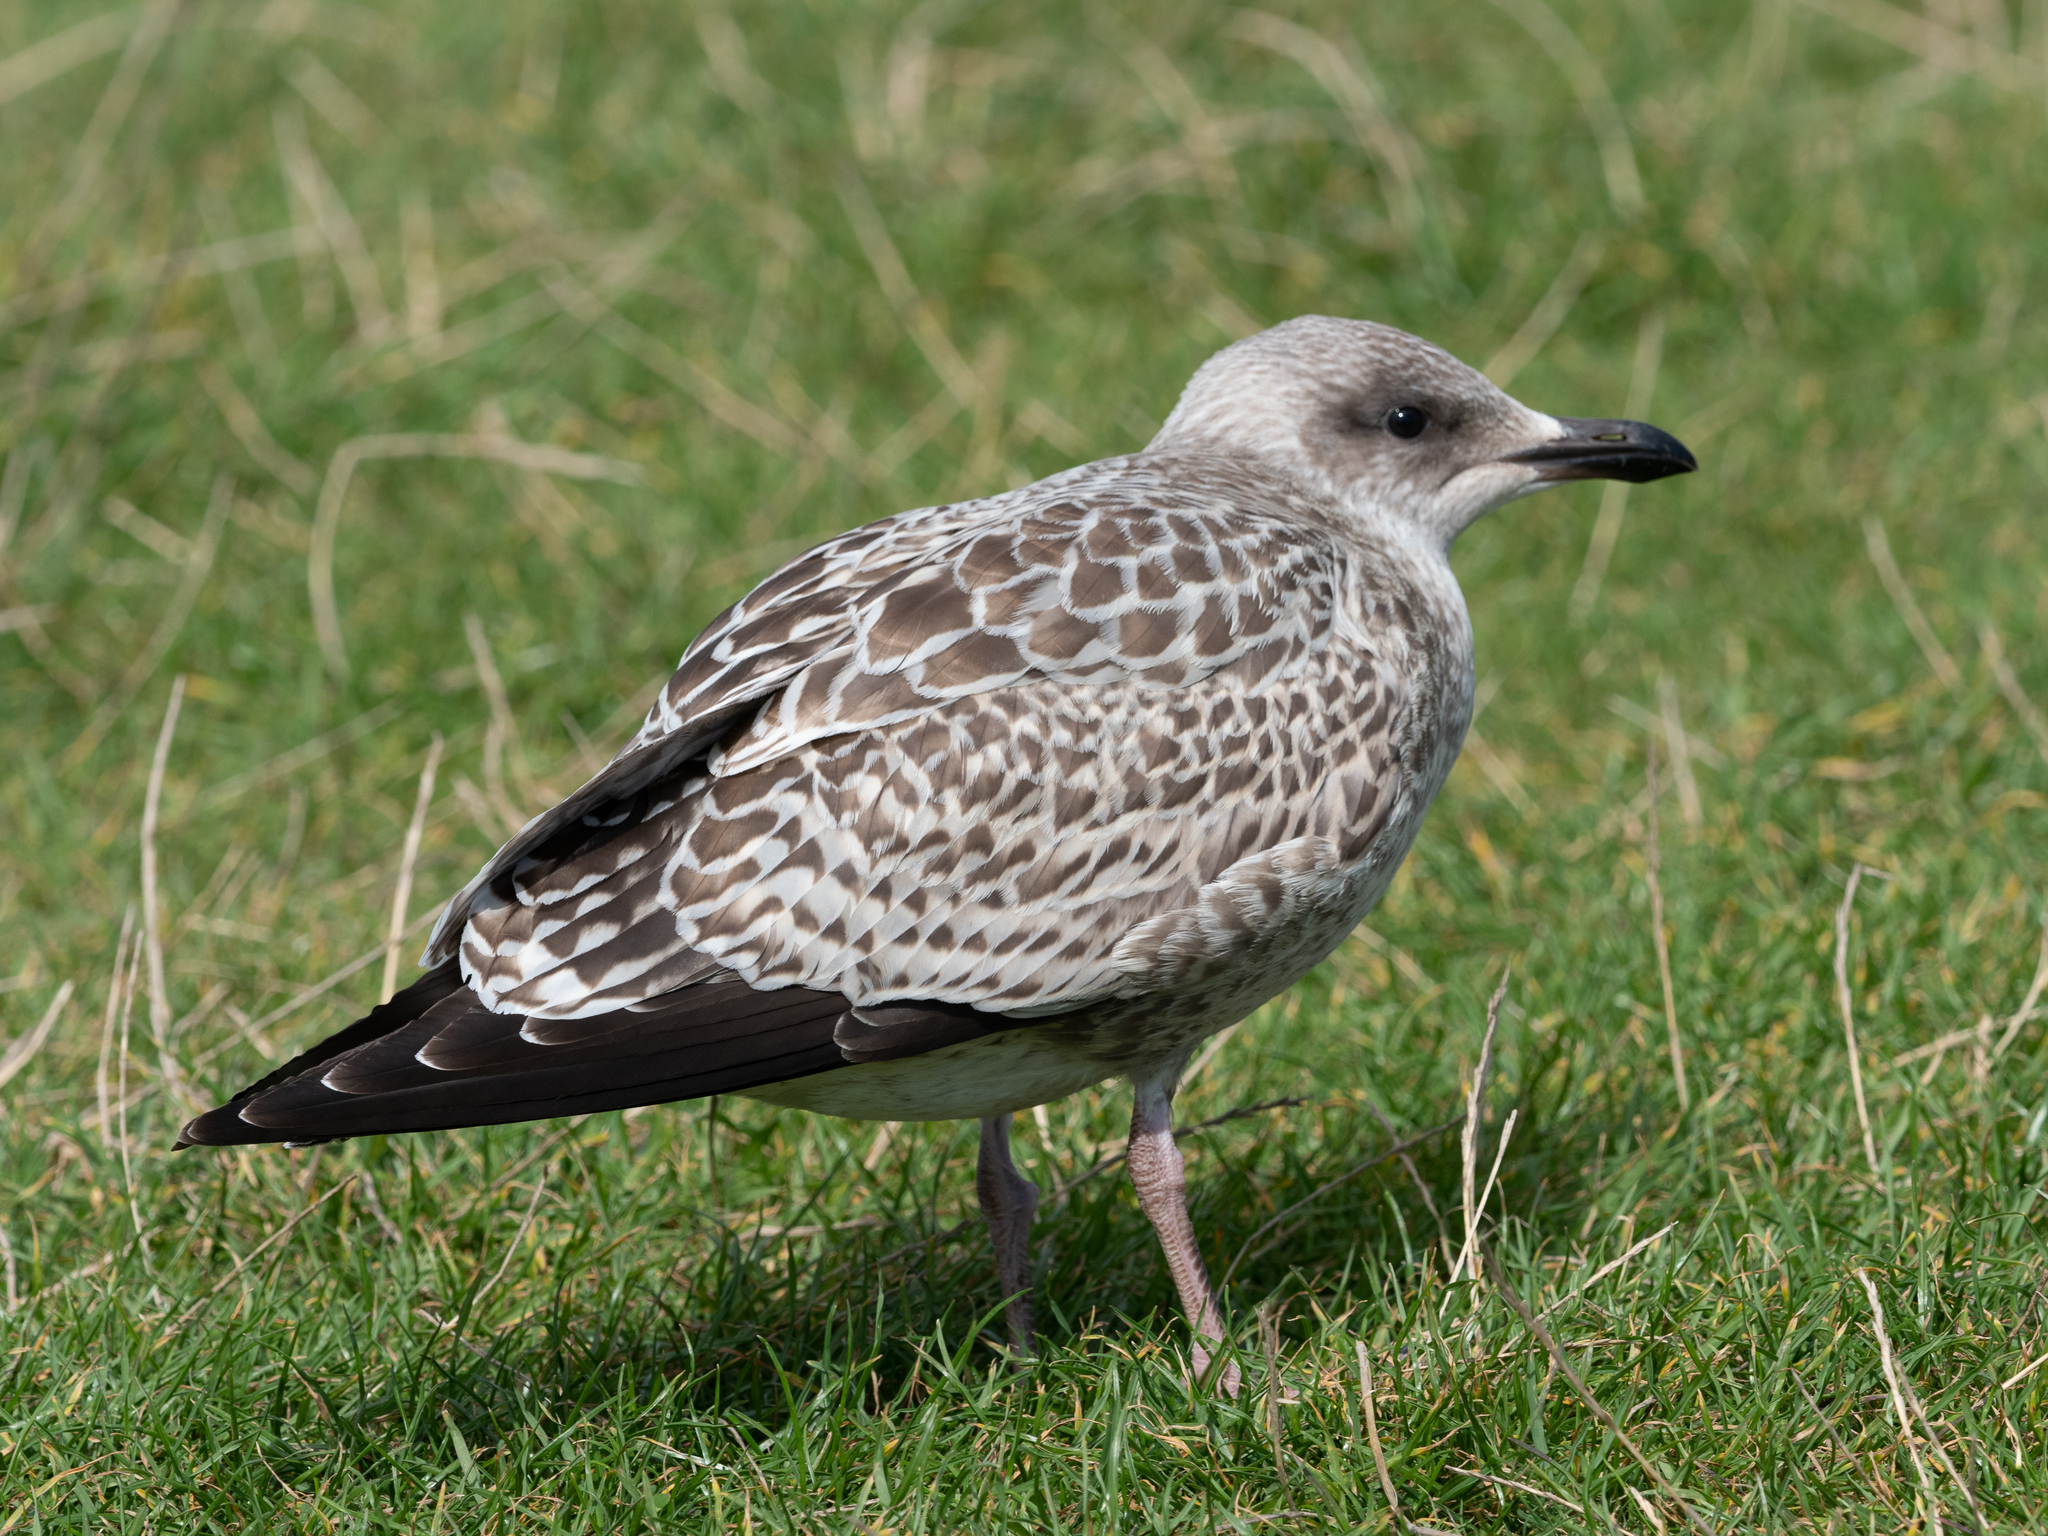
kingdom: Animalia
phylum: Chordata
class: Aves
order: Charadriiformes
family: Laridae
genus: Larus
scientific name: Larus argentatus
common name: Herring gull
